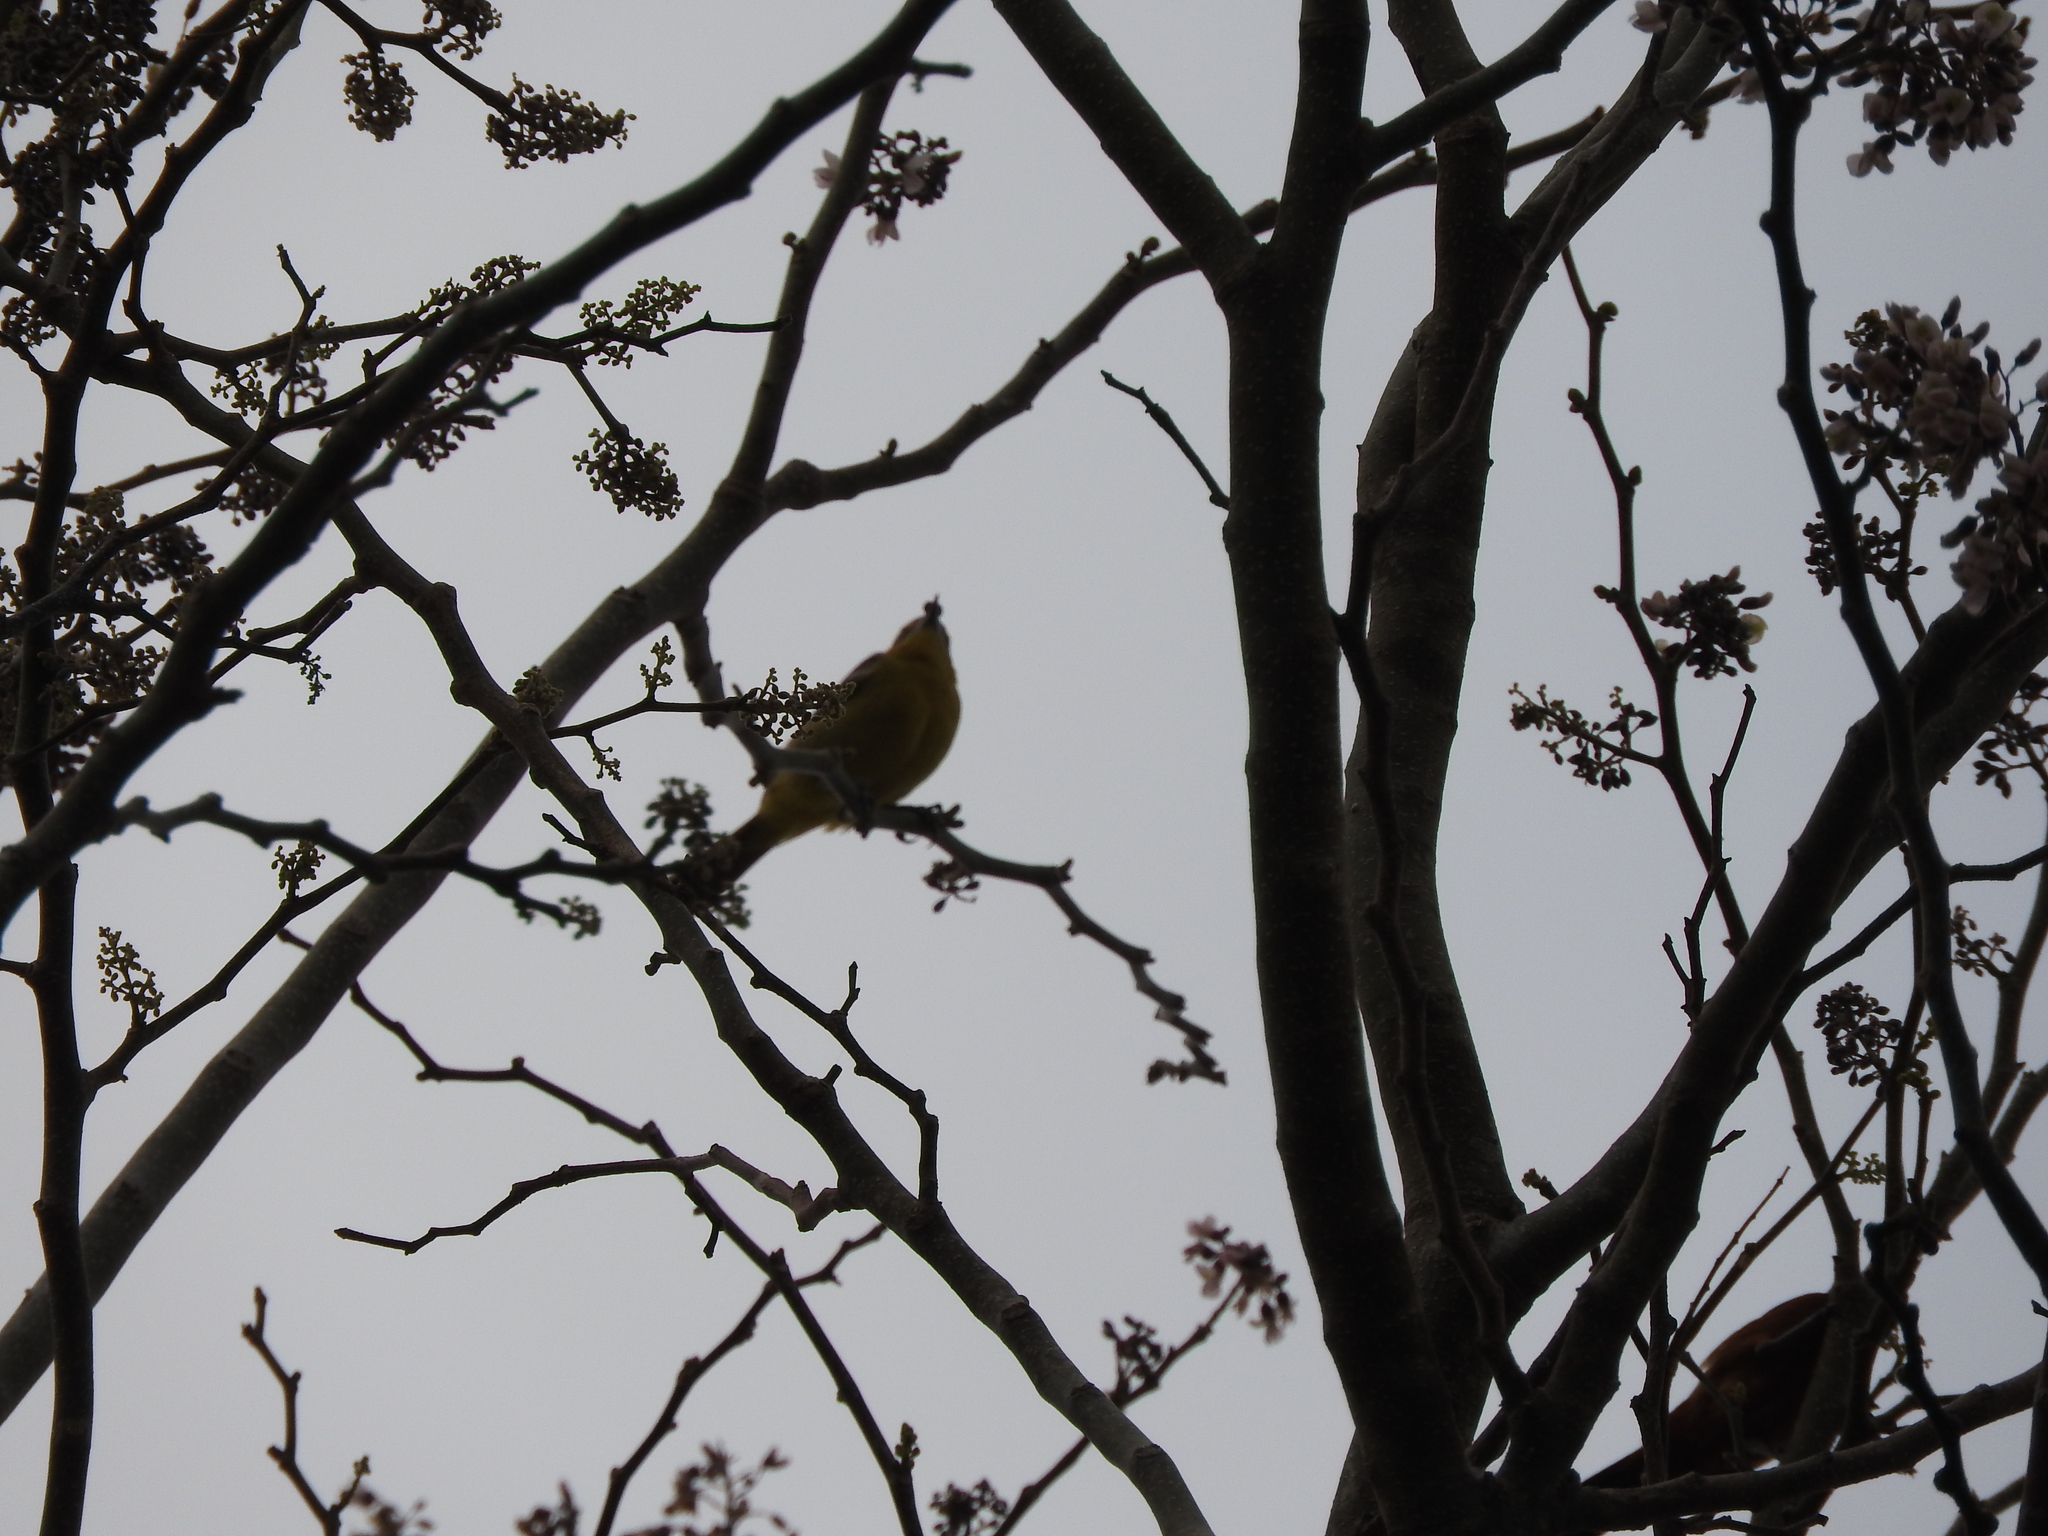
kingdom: Animalia
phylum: Chordata
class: Aves
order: Passeriformes
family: Icteridae
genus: Icterus
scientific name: Icterus
